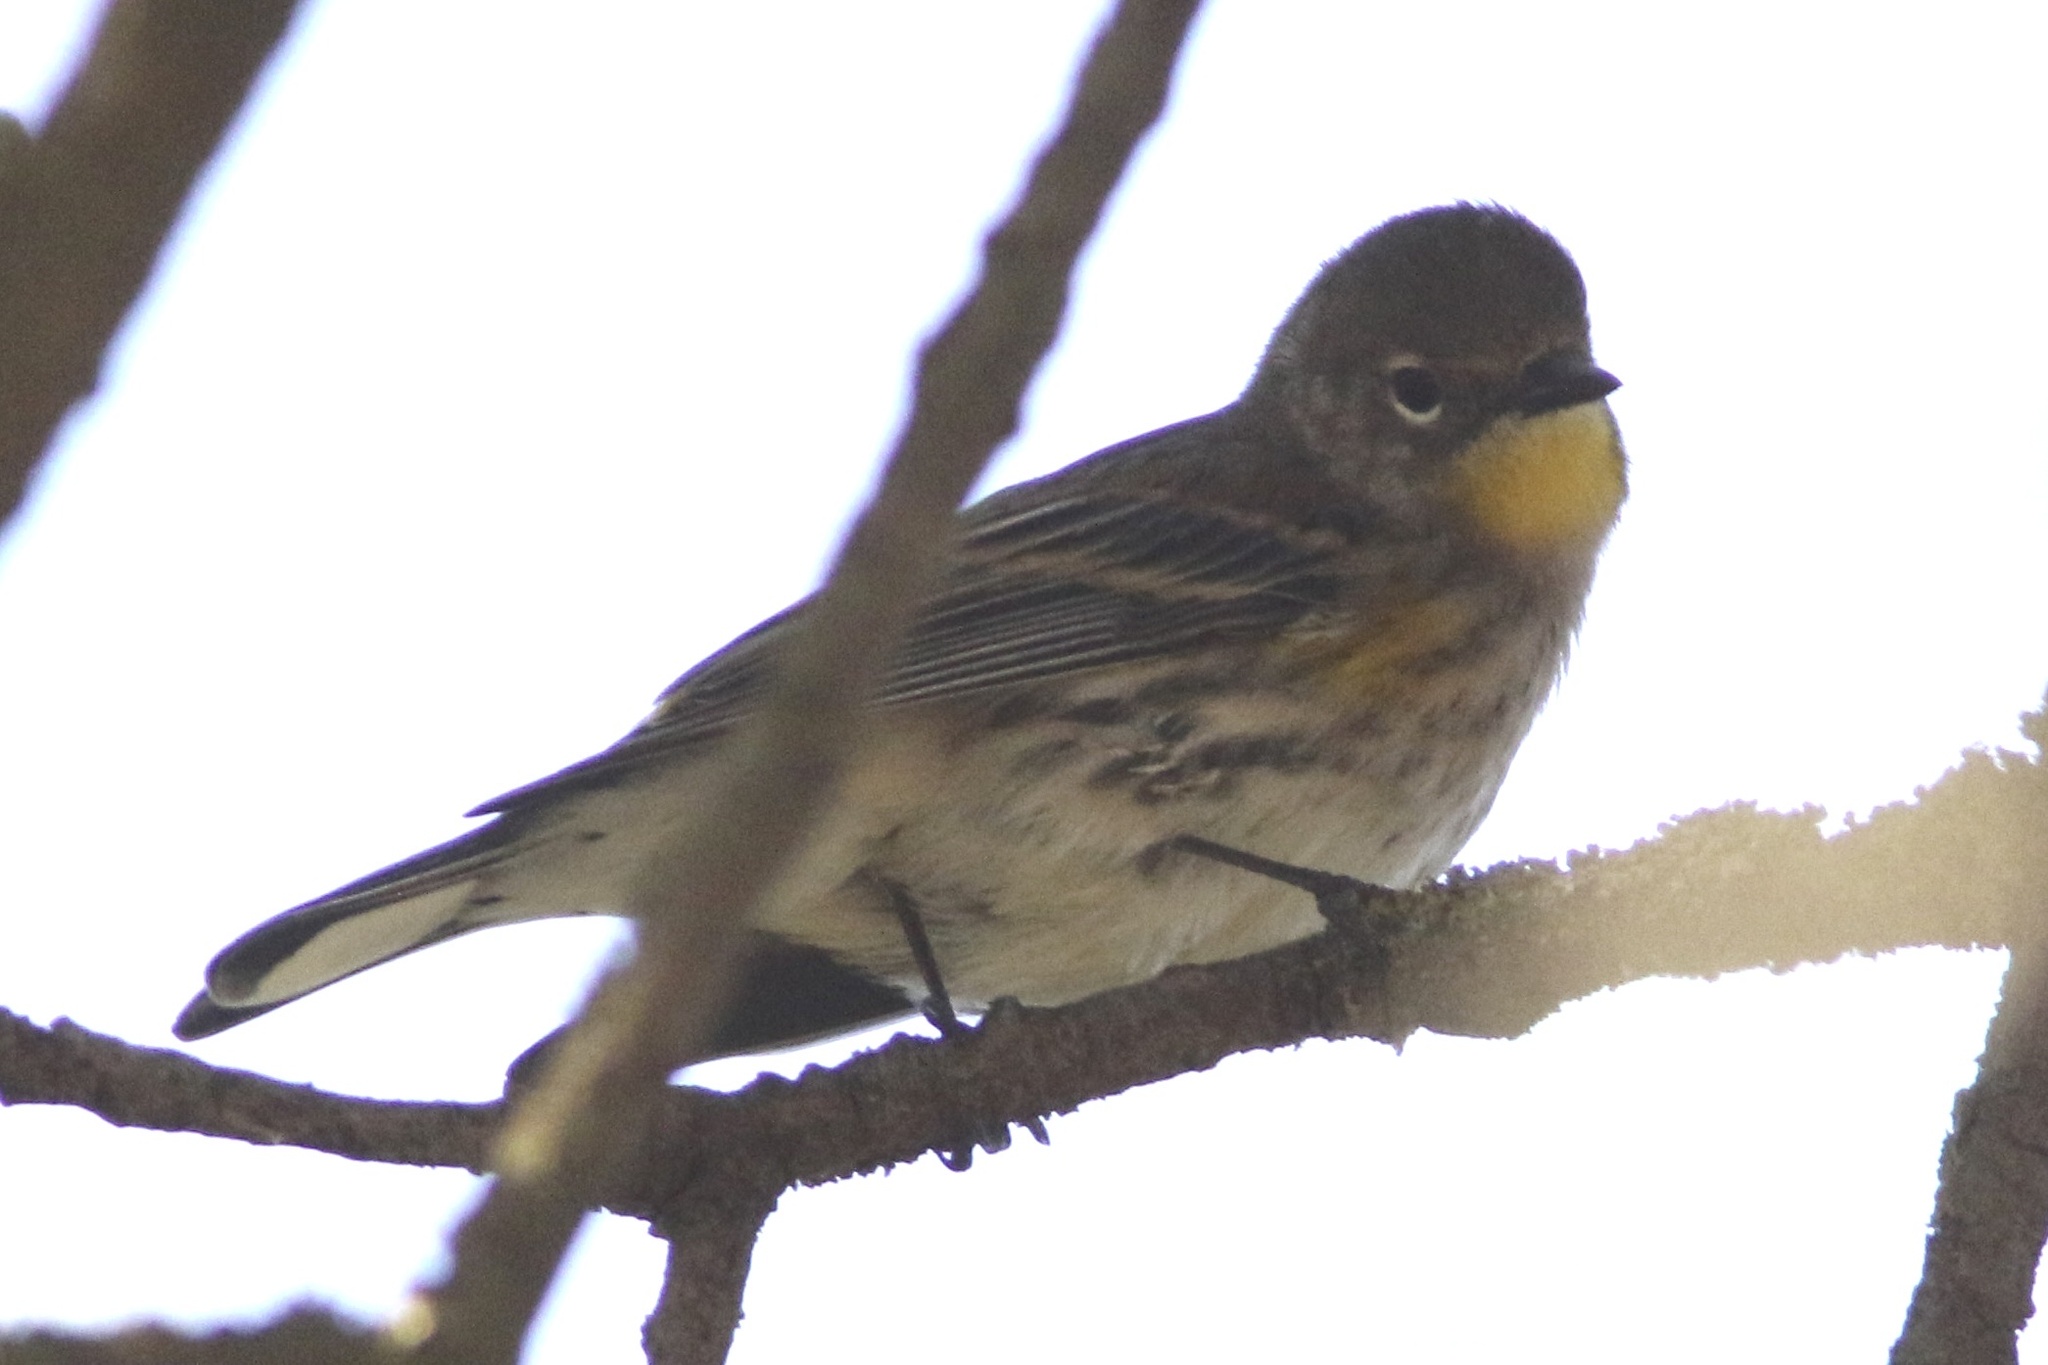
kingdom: Animalia
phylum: Chordata
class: Aves
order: Passeriformes
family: Parulidae
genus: Setophaga
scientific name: Setophaga coronata
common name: Myrtle warbler
